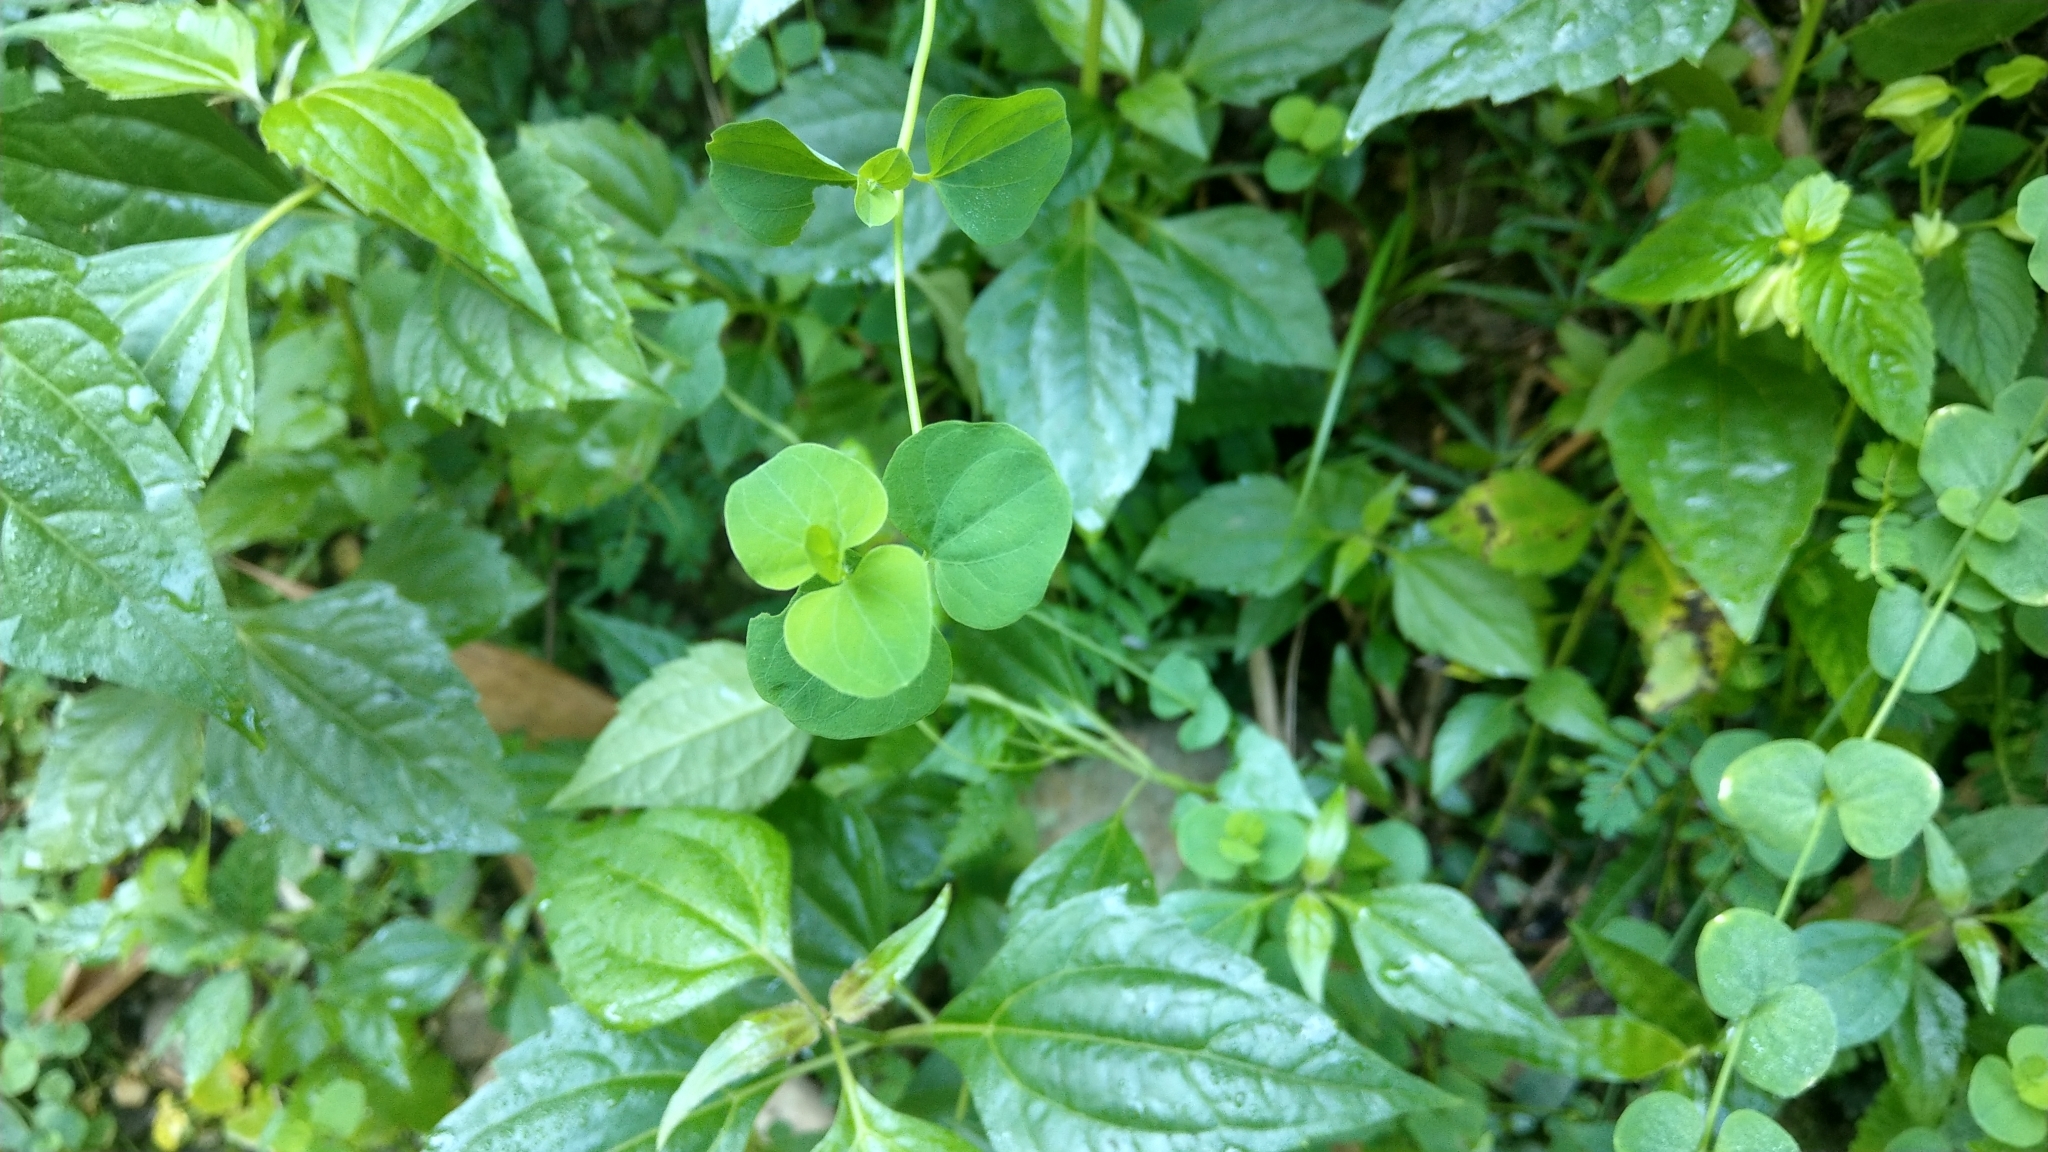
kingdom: Plantae
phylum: Tracheophyta
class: Magnoliopsida
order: Caryophyllales
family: Caryophyllaceae
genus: Drymaria
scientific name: Drymaria cordata
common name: Whitesnow
